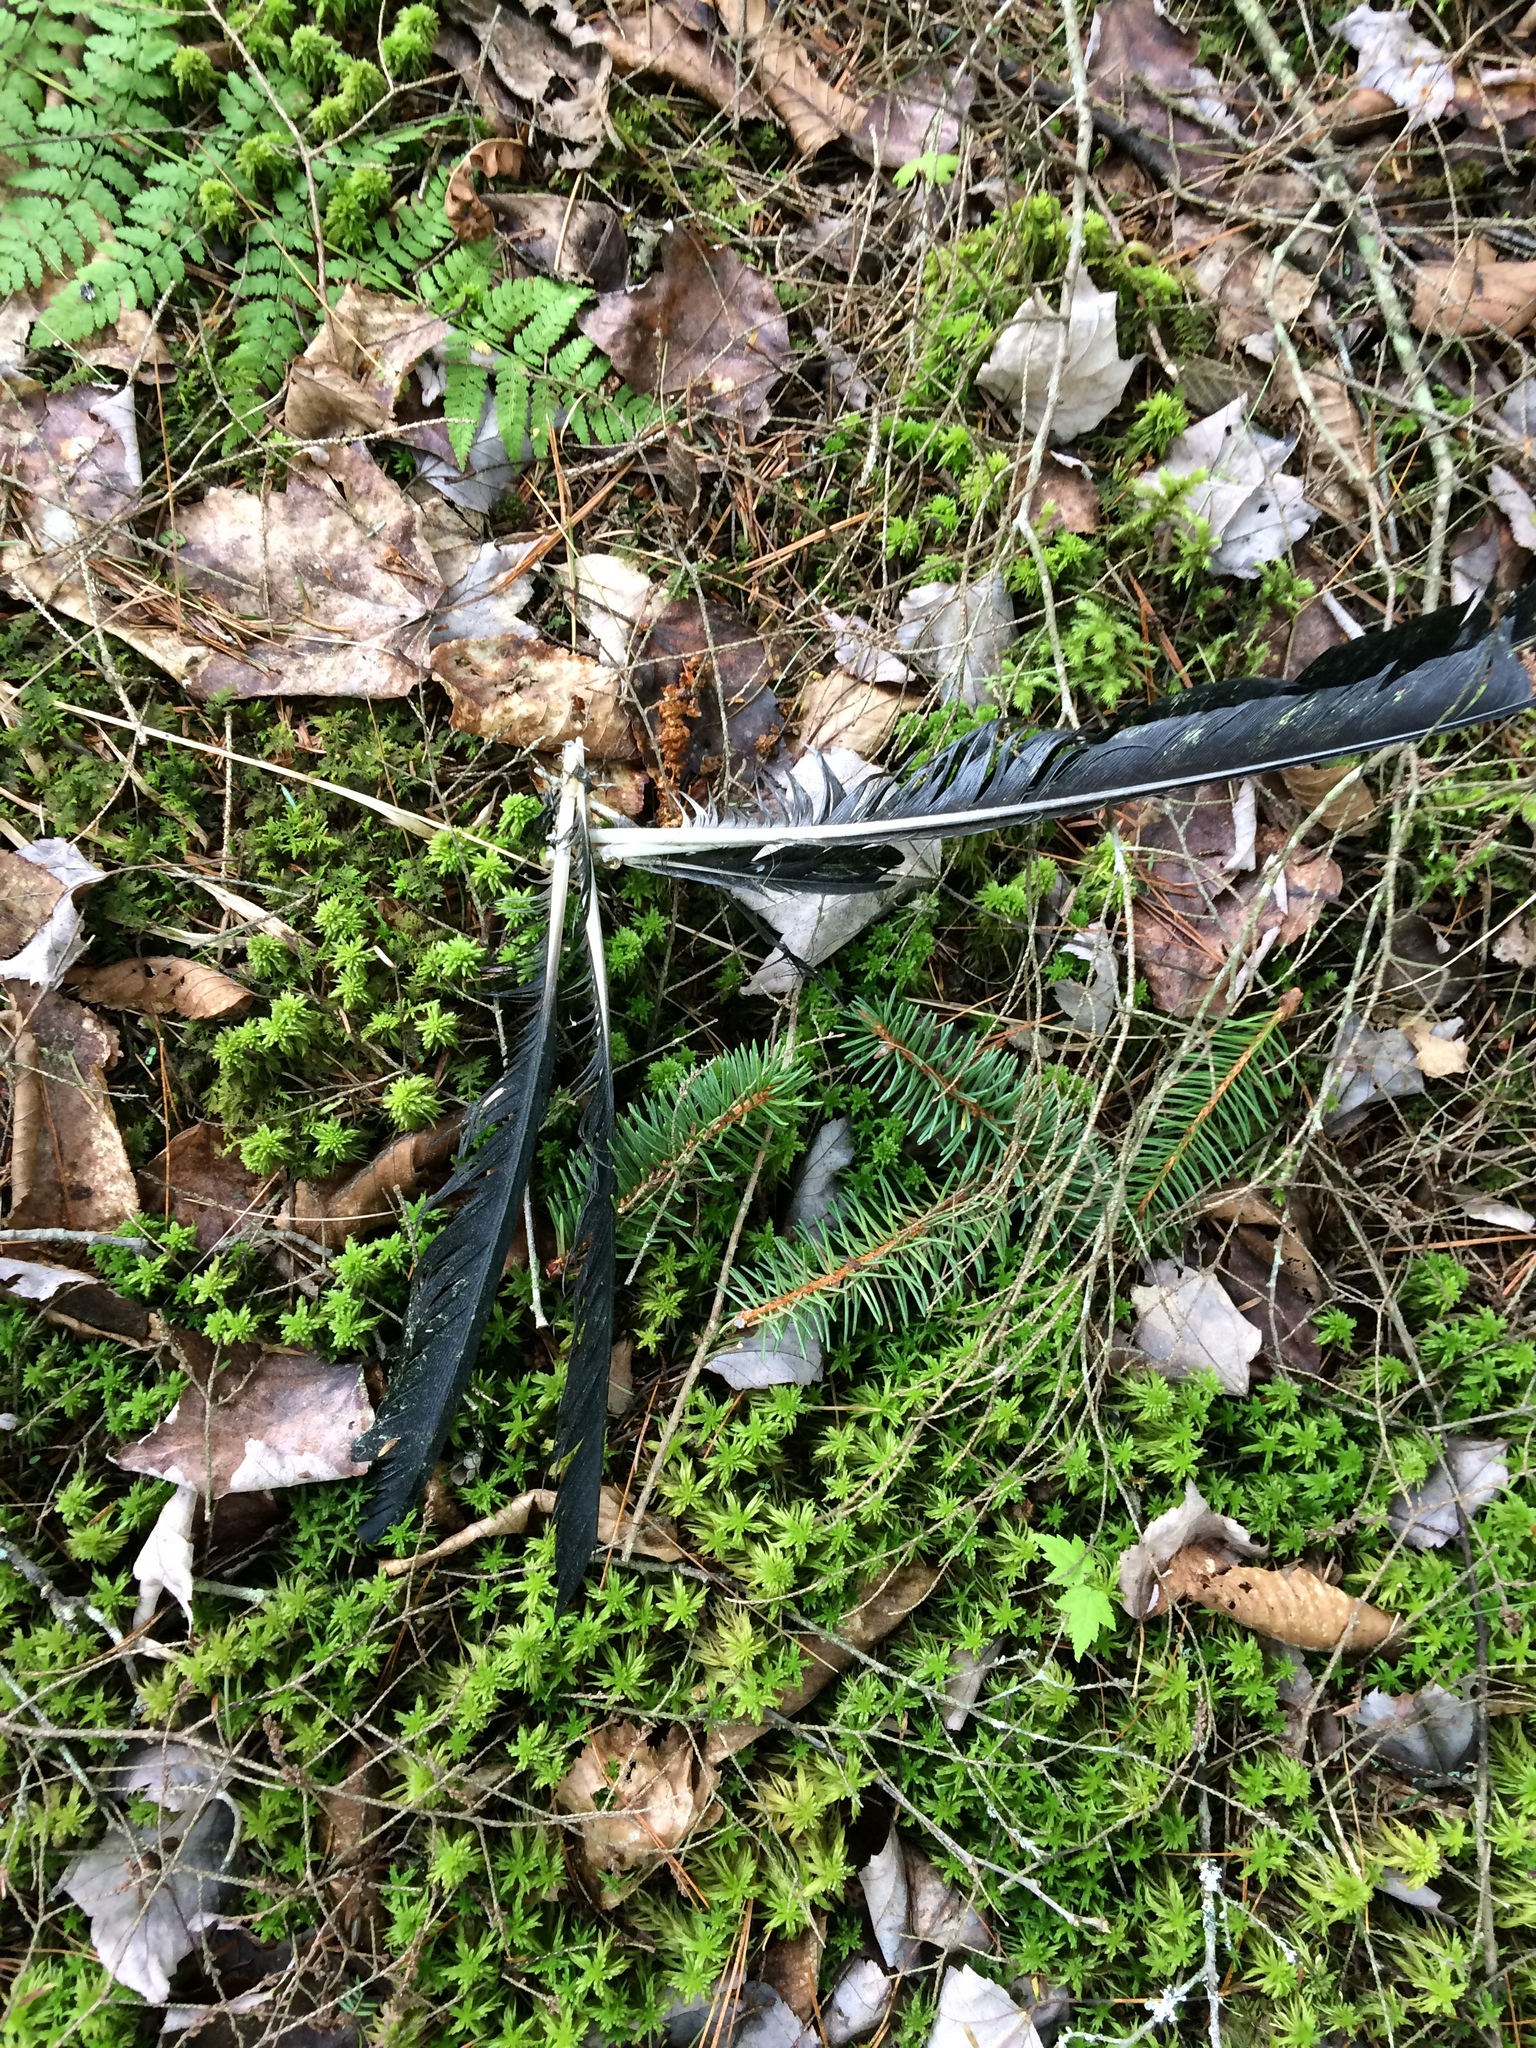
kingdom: Animalia
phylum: Chordata
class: Aves
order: Passeriformes
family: Corvidae
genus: Corvus
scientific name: Corvus brachyrhynchos
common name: American crow
